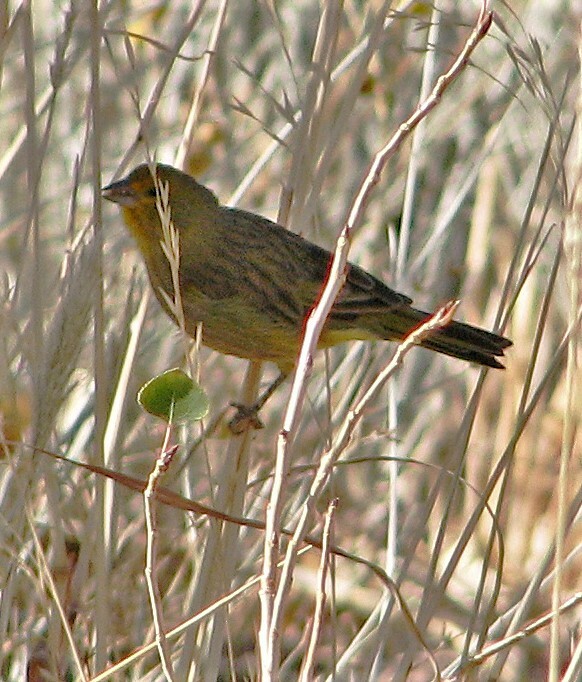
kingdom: Animalia
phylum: Chordata
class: Aves
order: Passeriformes
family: Thraupidae
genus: Sicalis
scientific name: Sicalis flaveola
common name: Saffron finch
